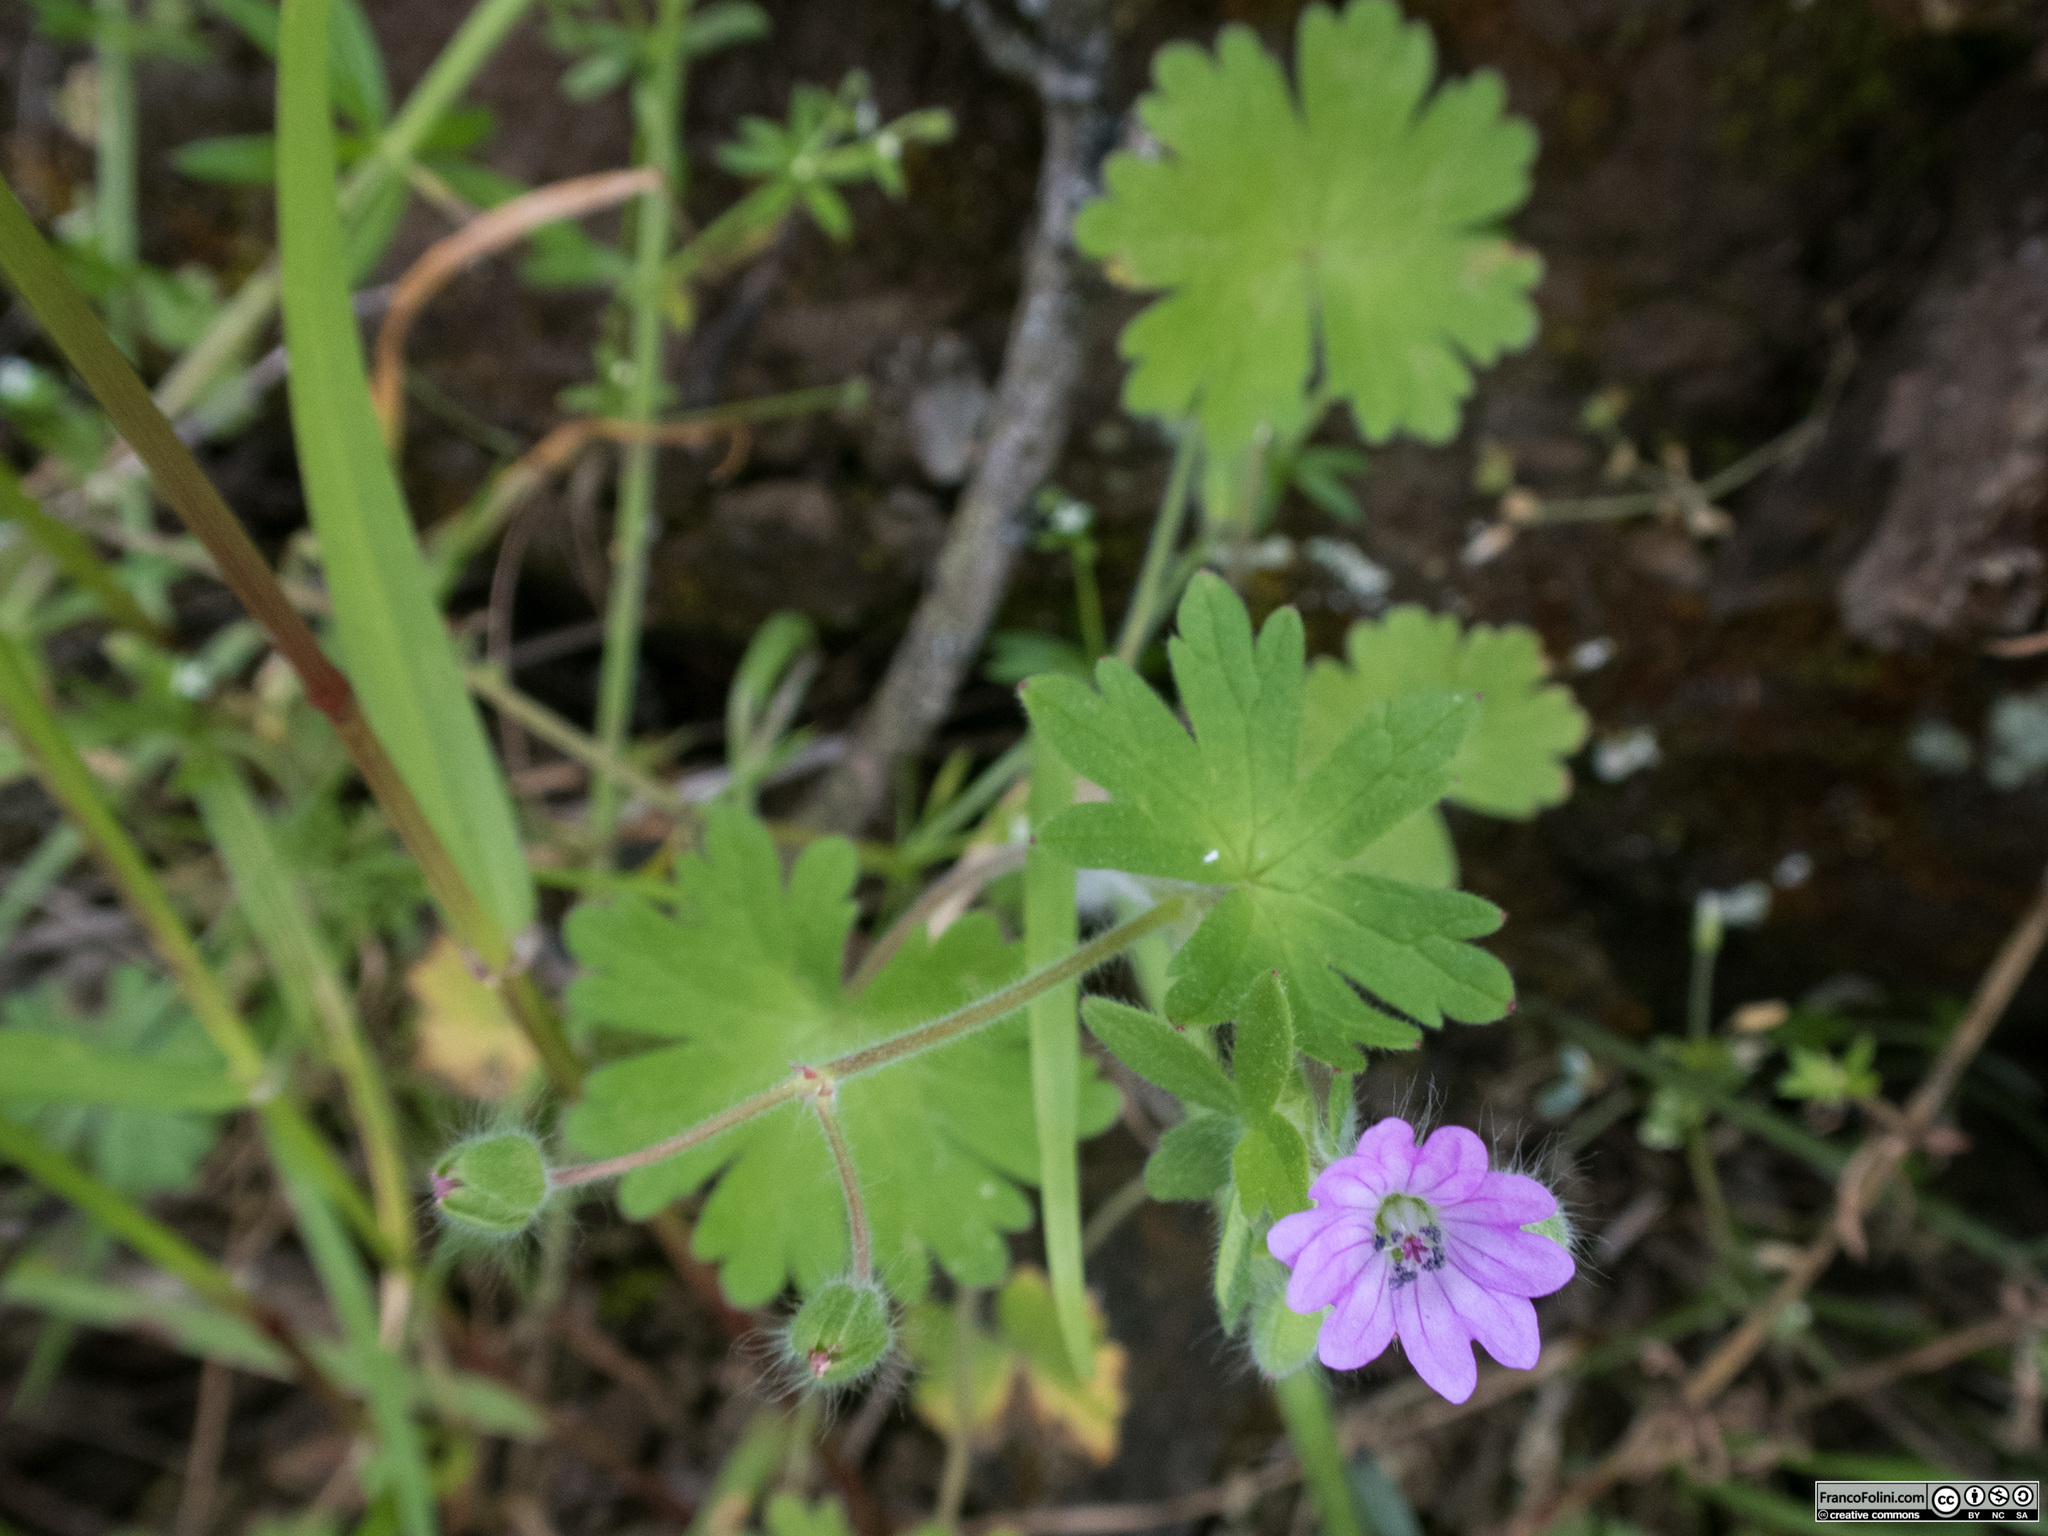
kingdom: Plantae
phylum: Tracheophyta
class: Magnoliopsida
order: Geraniales
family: Geraniaceae
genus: Geranium
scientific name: Geranium molle
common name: Dove's-foot crane's-bill
